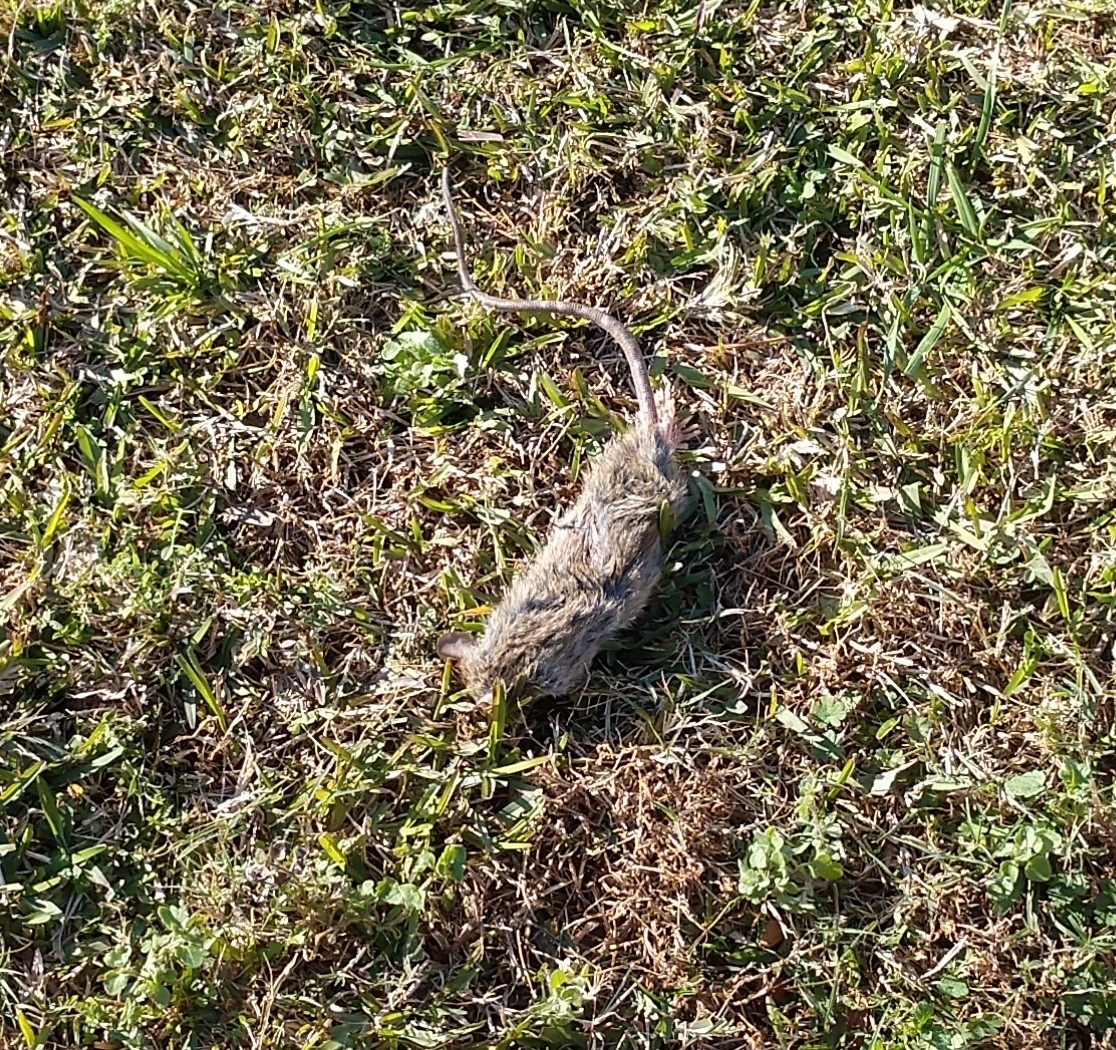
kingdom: Animalia
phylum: Chordata
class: Mammalia
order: Rodentia
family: Muridae
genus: Rattus
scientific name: Rattus rattus
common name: Black rat
